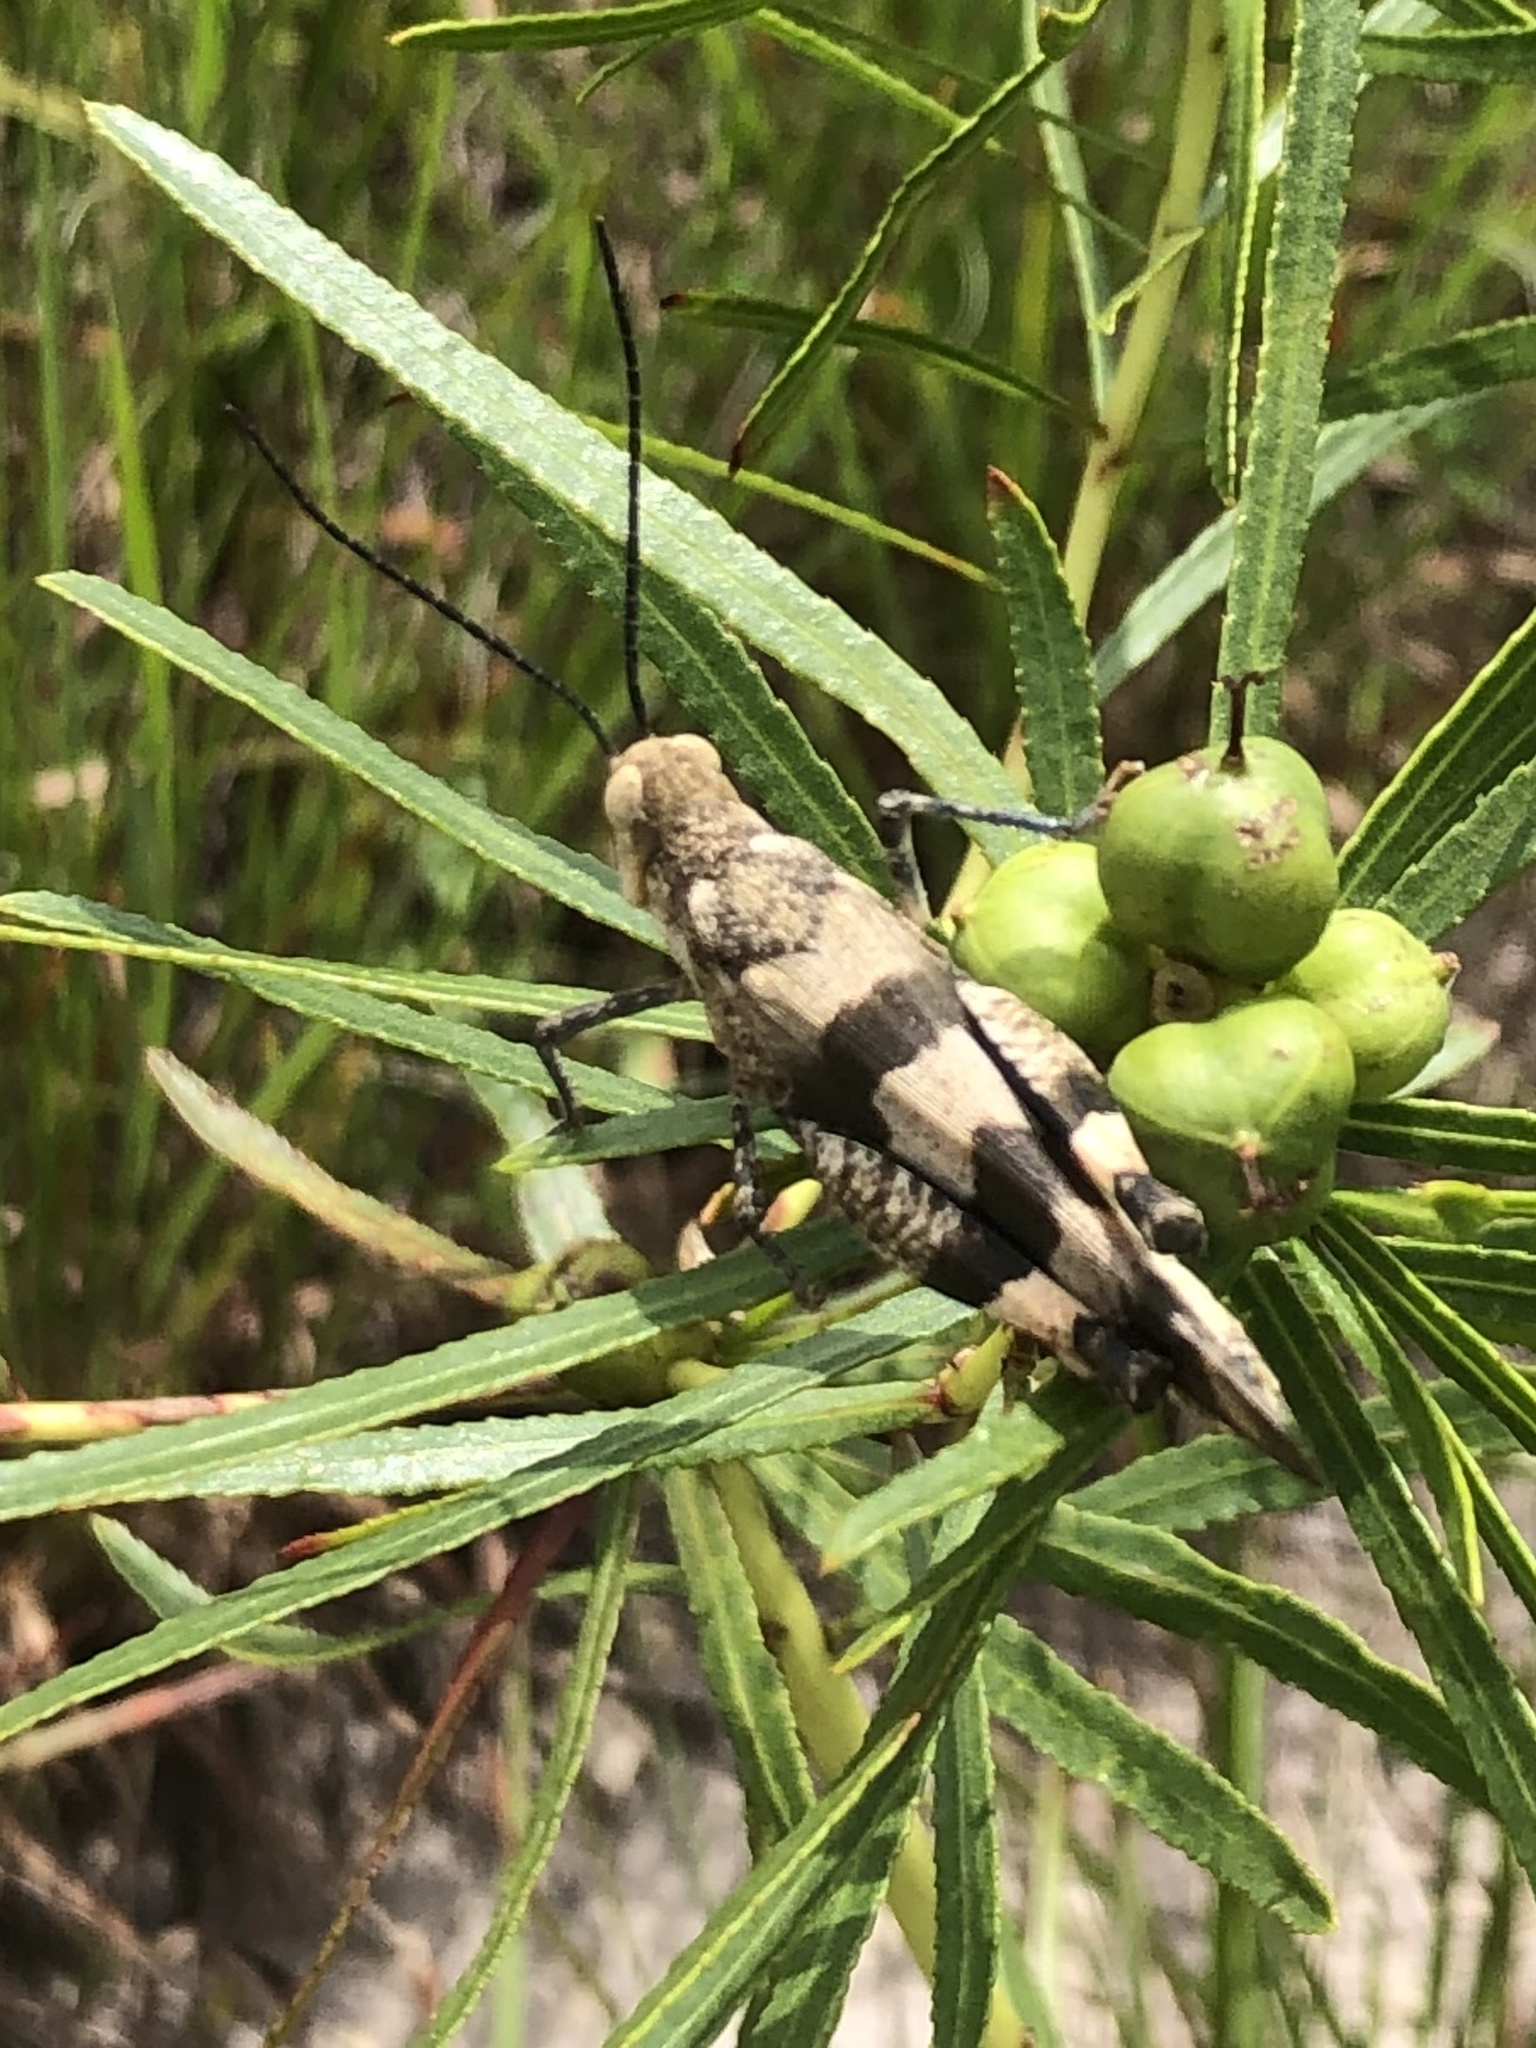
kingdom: Animalia
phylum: Arthropoda
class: Insecta
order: Orthoptera
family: Acrididae
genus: Hadrotettix
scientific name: Hadrotettix trifasciatus
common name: Threebanded grasshopper
